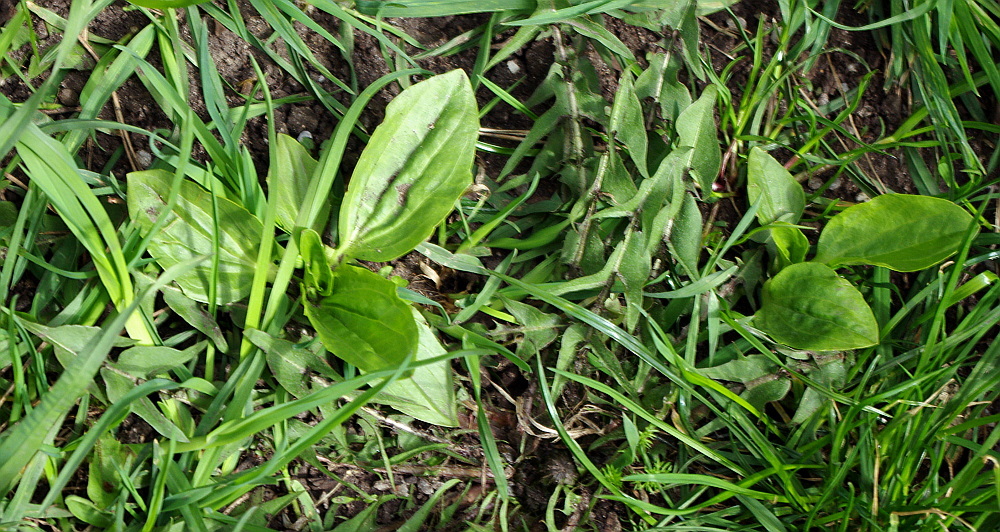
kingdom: Plantae
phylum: Tracheophyta
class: Magnoliopsida
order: Lamiales
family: Plantaginaceae
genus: Plantago
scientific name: Plantago major
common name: Common plantain
